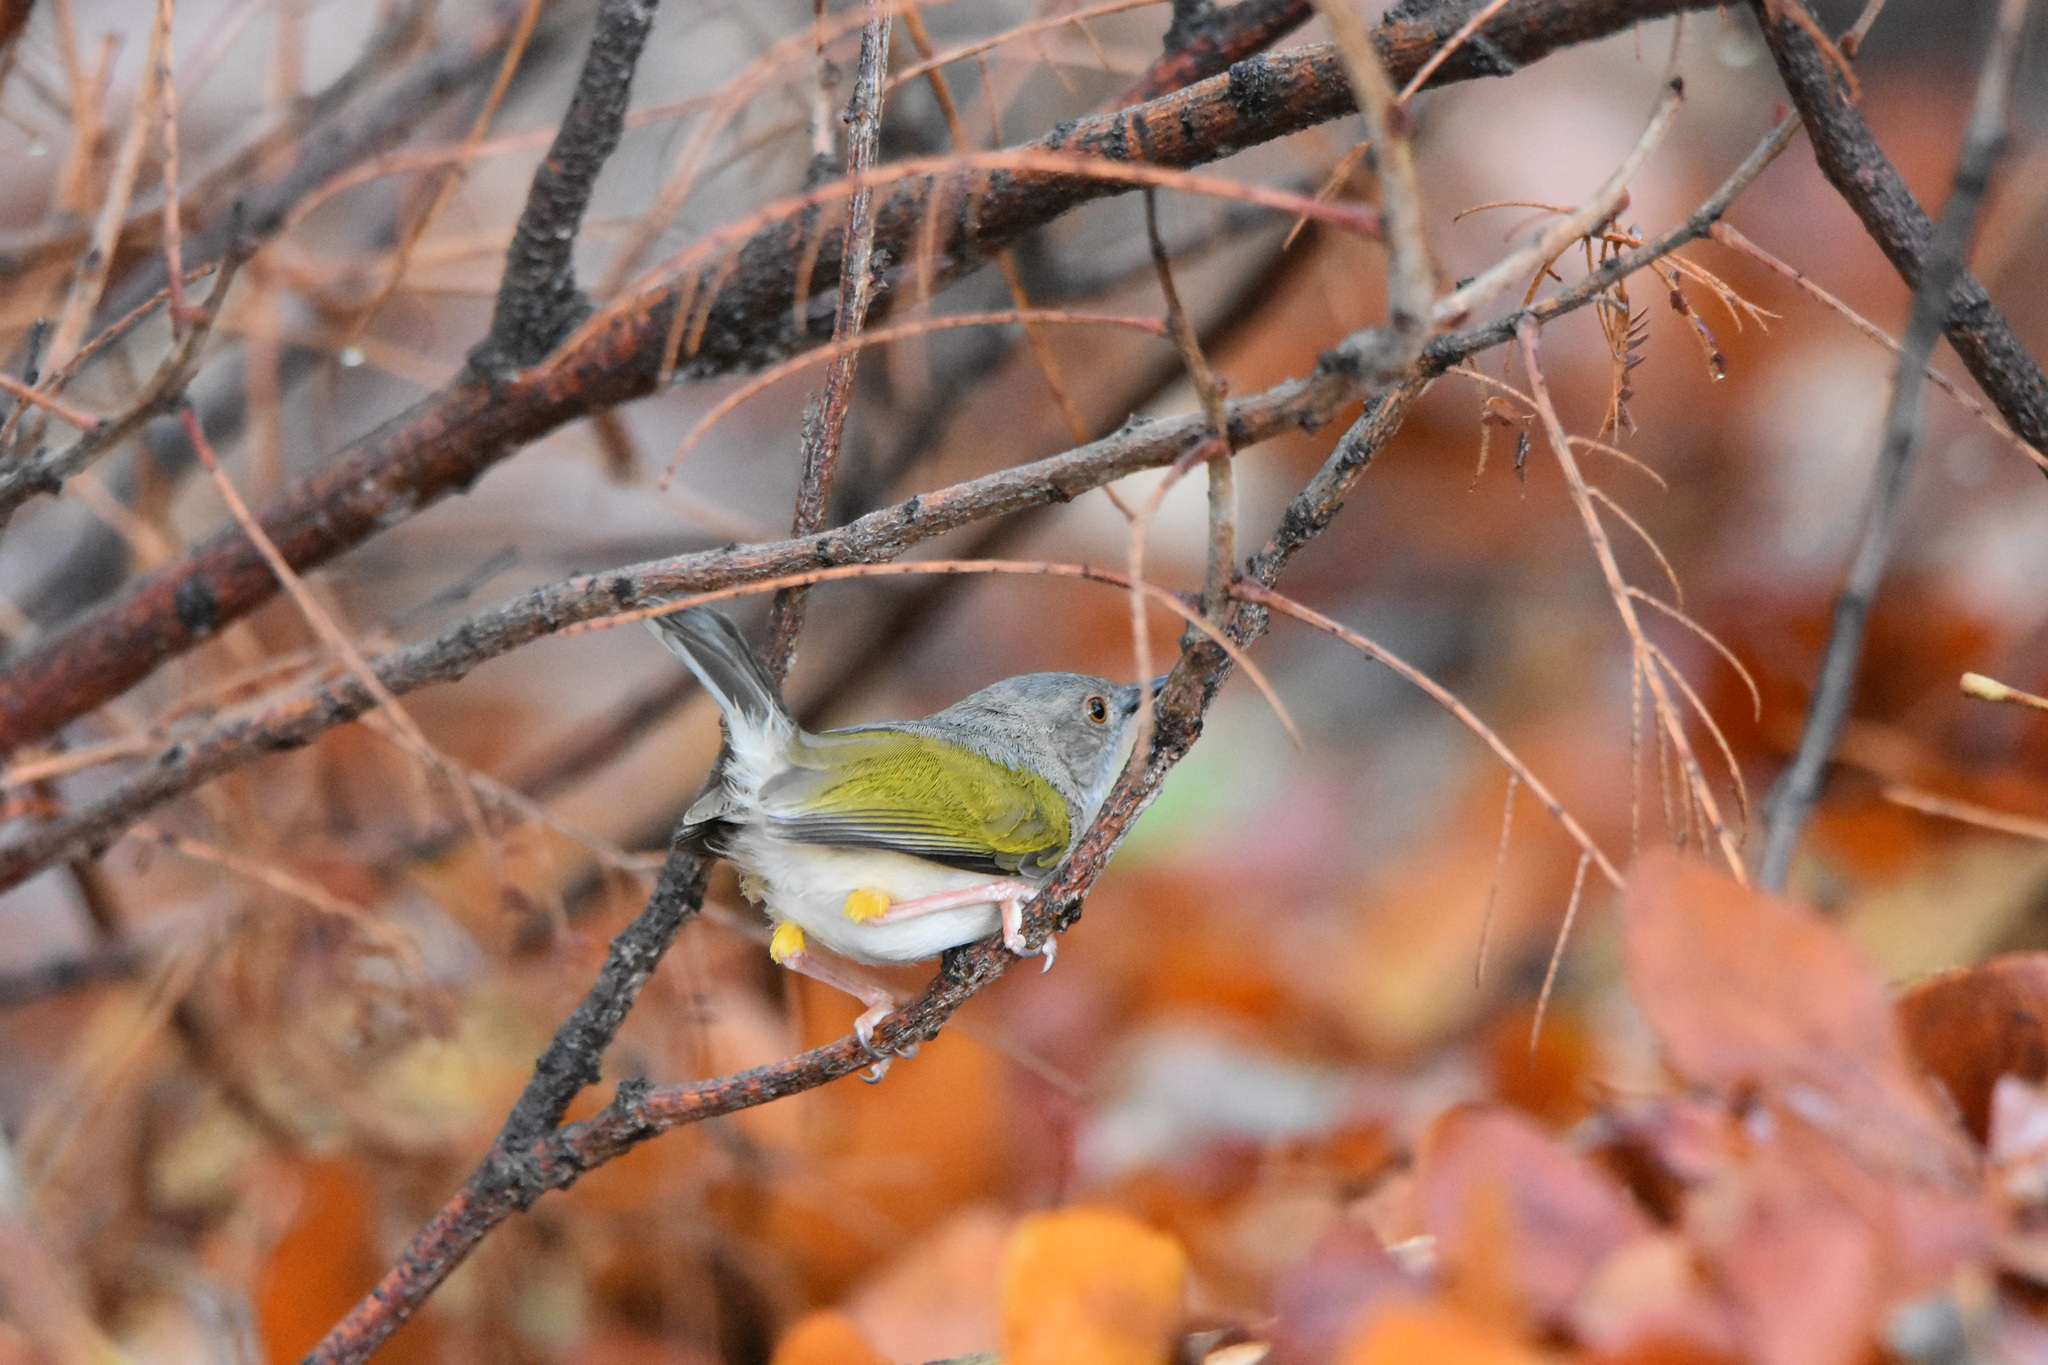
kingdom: Animalia
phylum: Chordata
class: Aves
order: Passeriformes
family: Cisticolidae
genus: Camaroptera
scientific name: Camaroptera brachyura
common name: Green-backed camaroptera
